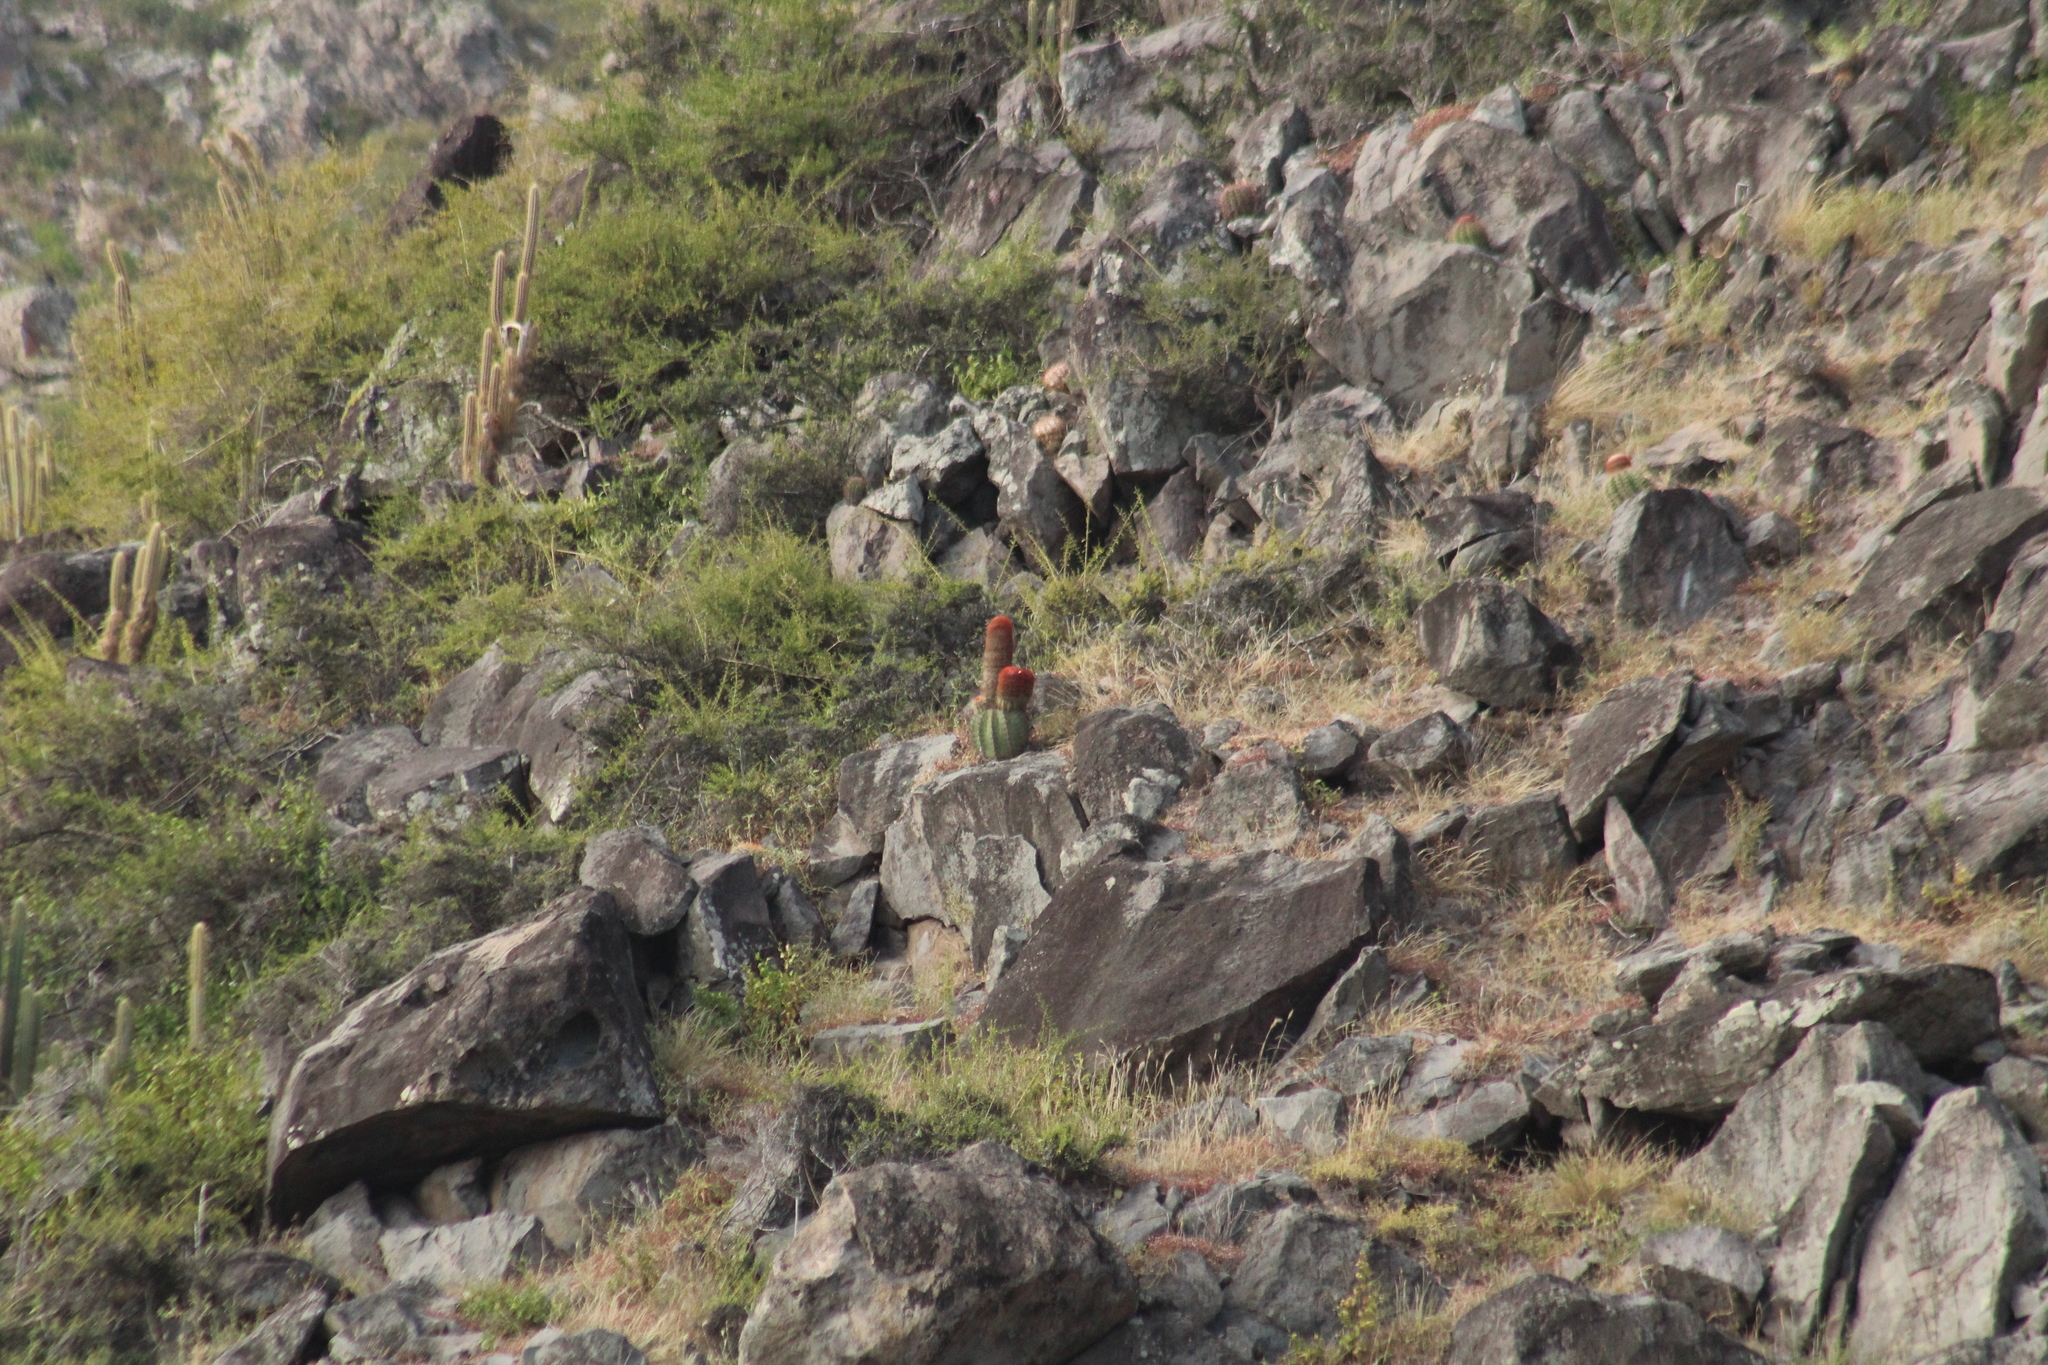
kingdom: Plantae
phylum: Tracheophyta
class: Magnoliopsida
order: Caryophyllales
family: Cactaceae
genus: Melocactus
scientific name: Melocactus intortus
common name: Barrel cactus
